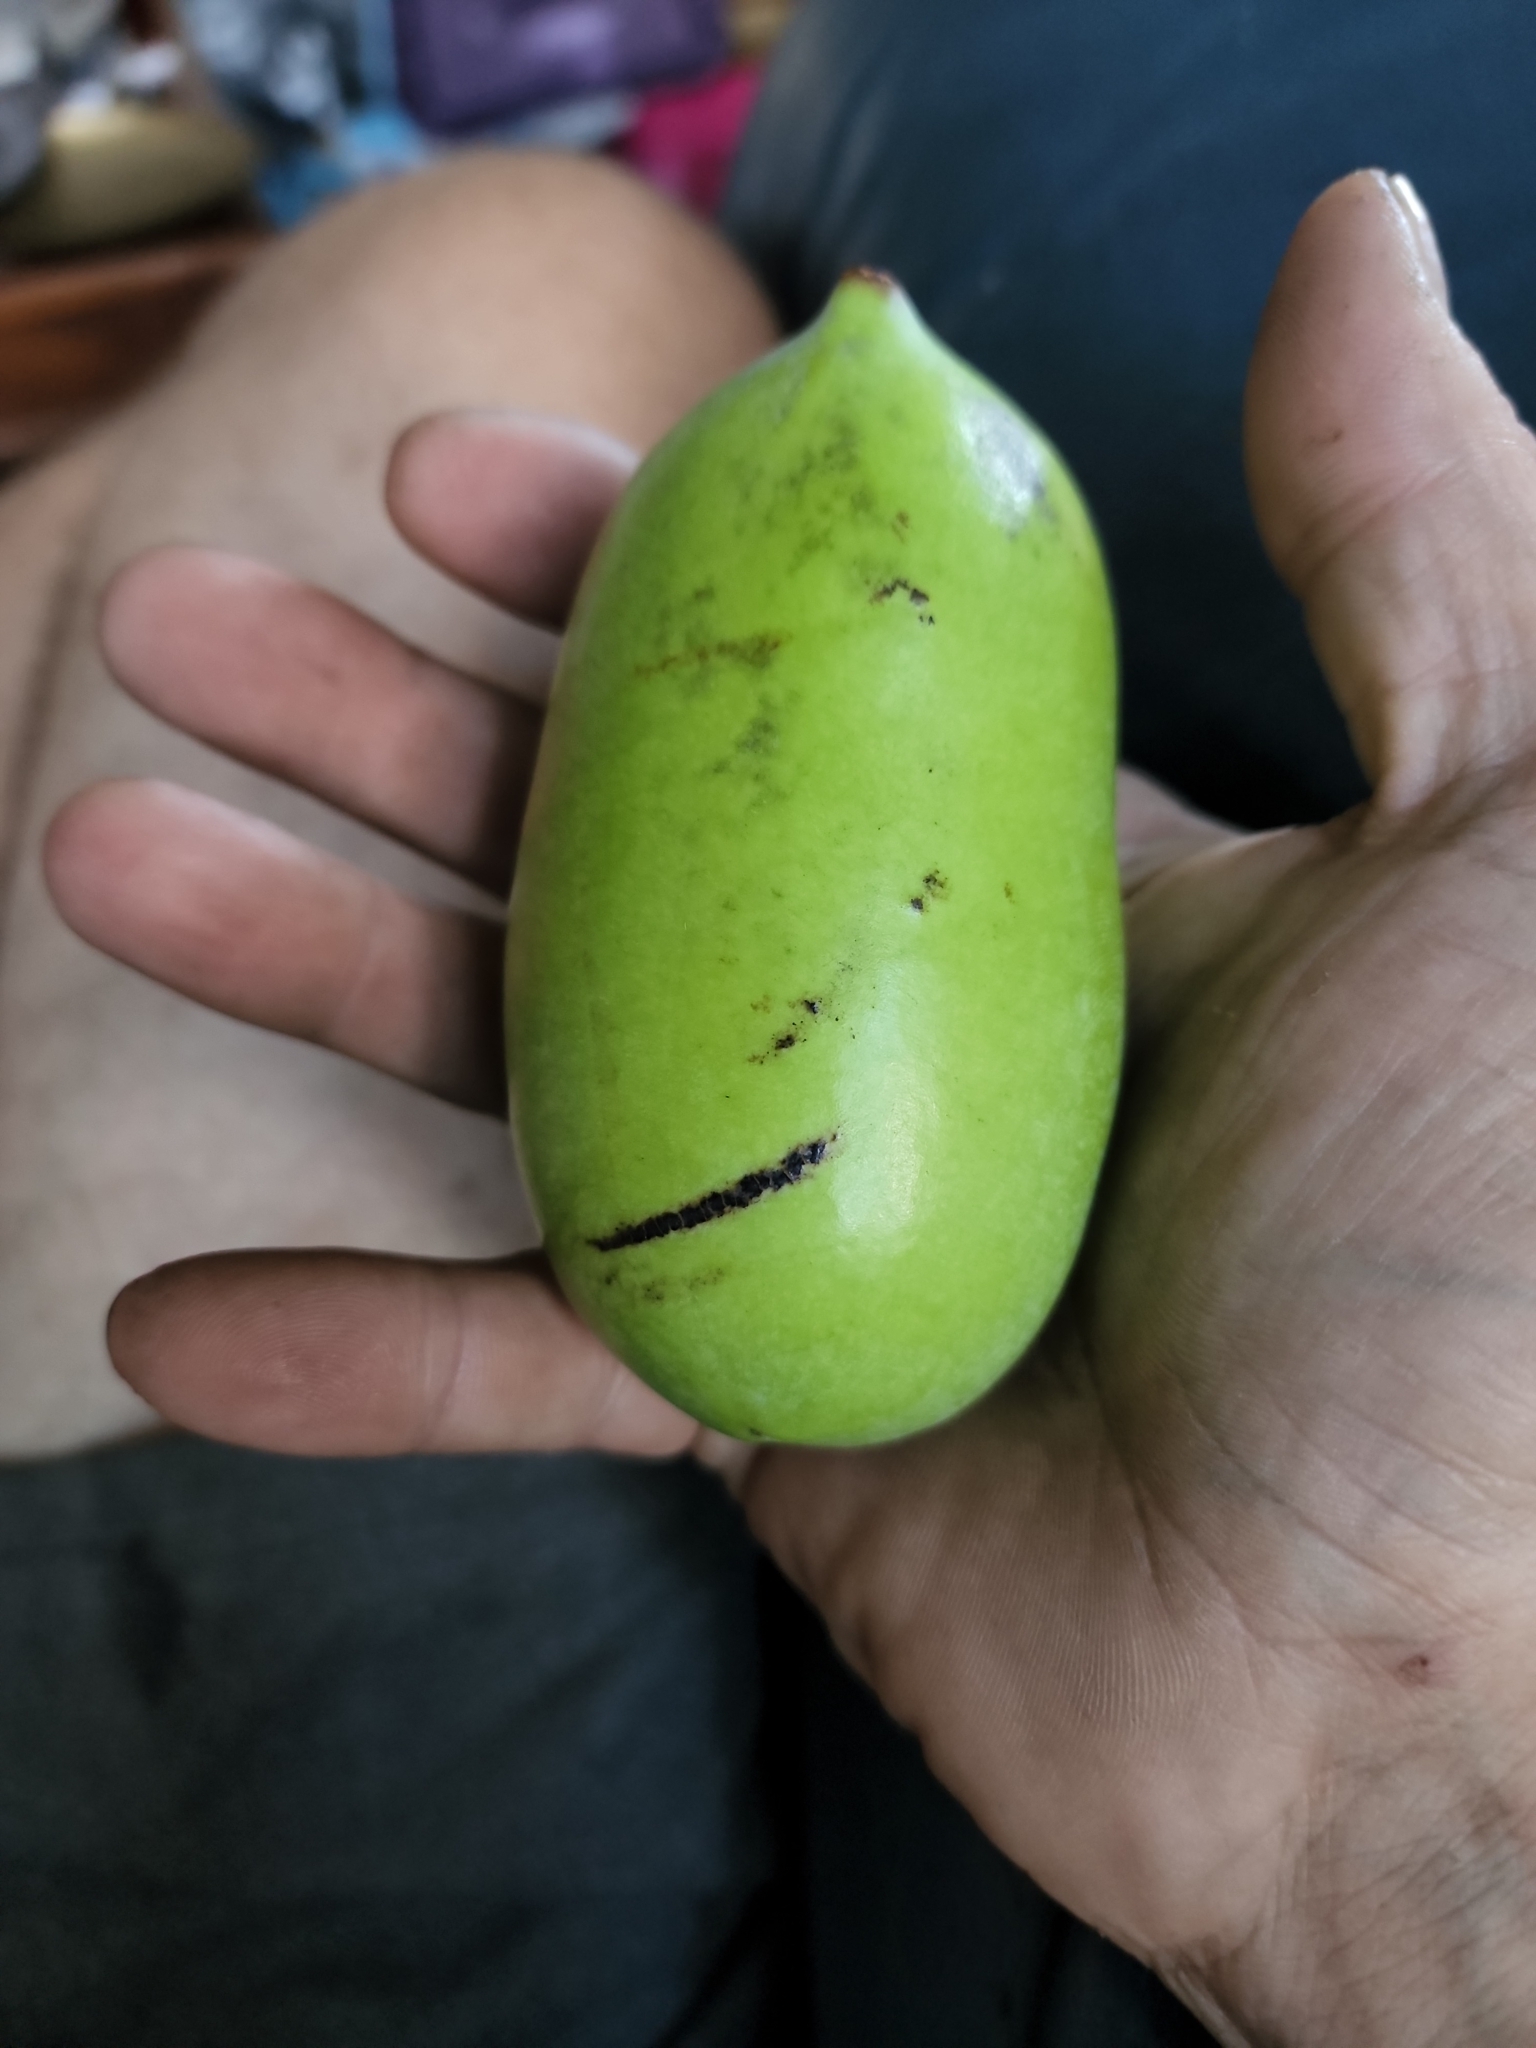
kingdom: Plantae
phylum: Tracheophyta
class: Magnoliopsida
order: Magnoliales
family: Annonaceae
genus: Asimina
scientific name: Asimina triloba
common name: Dog-banana
